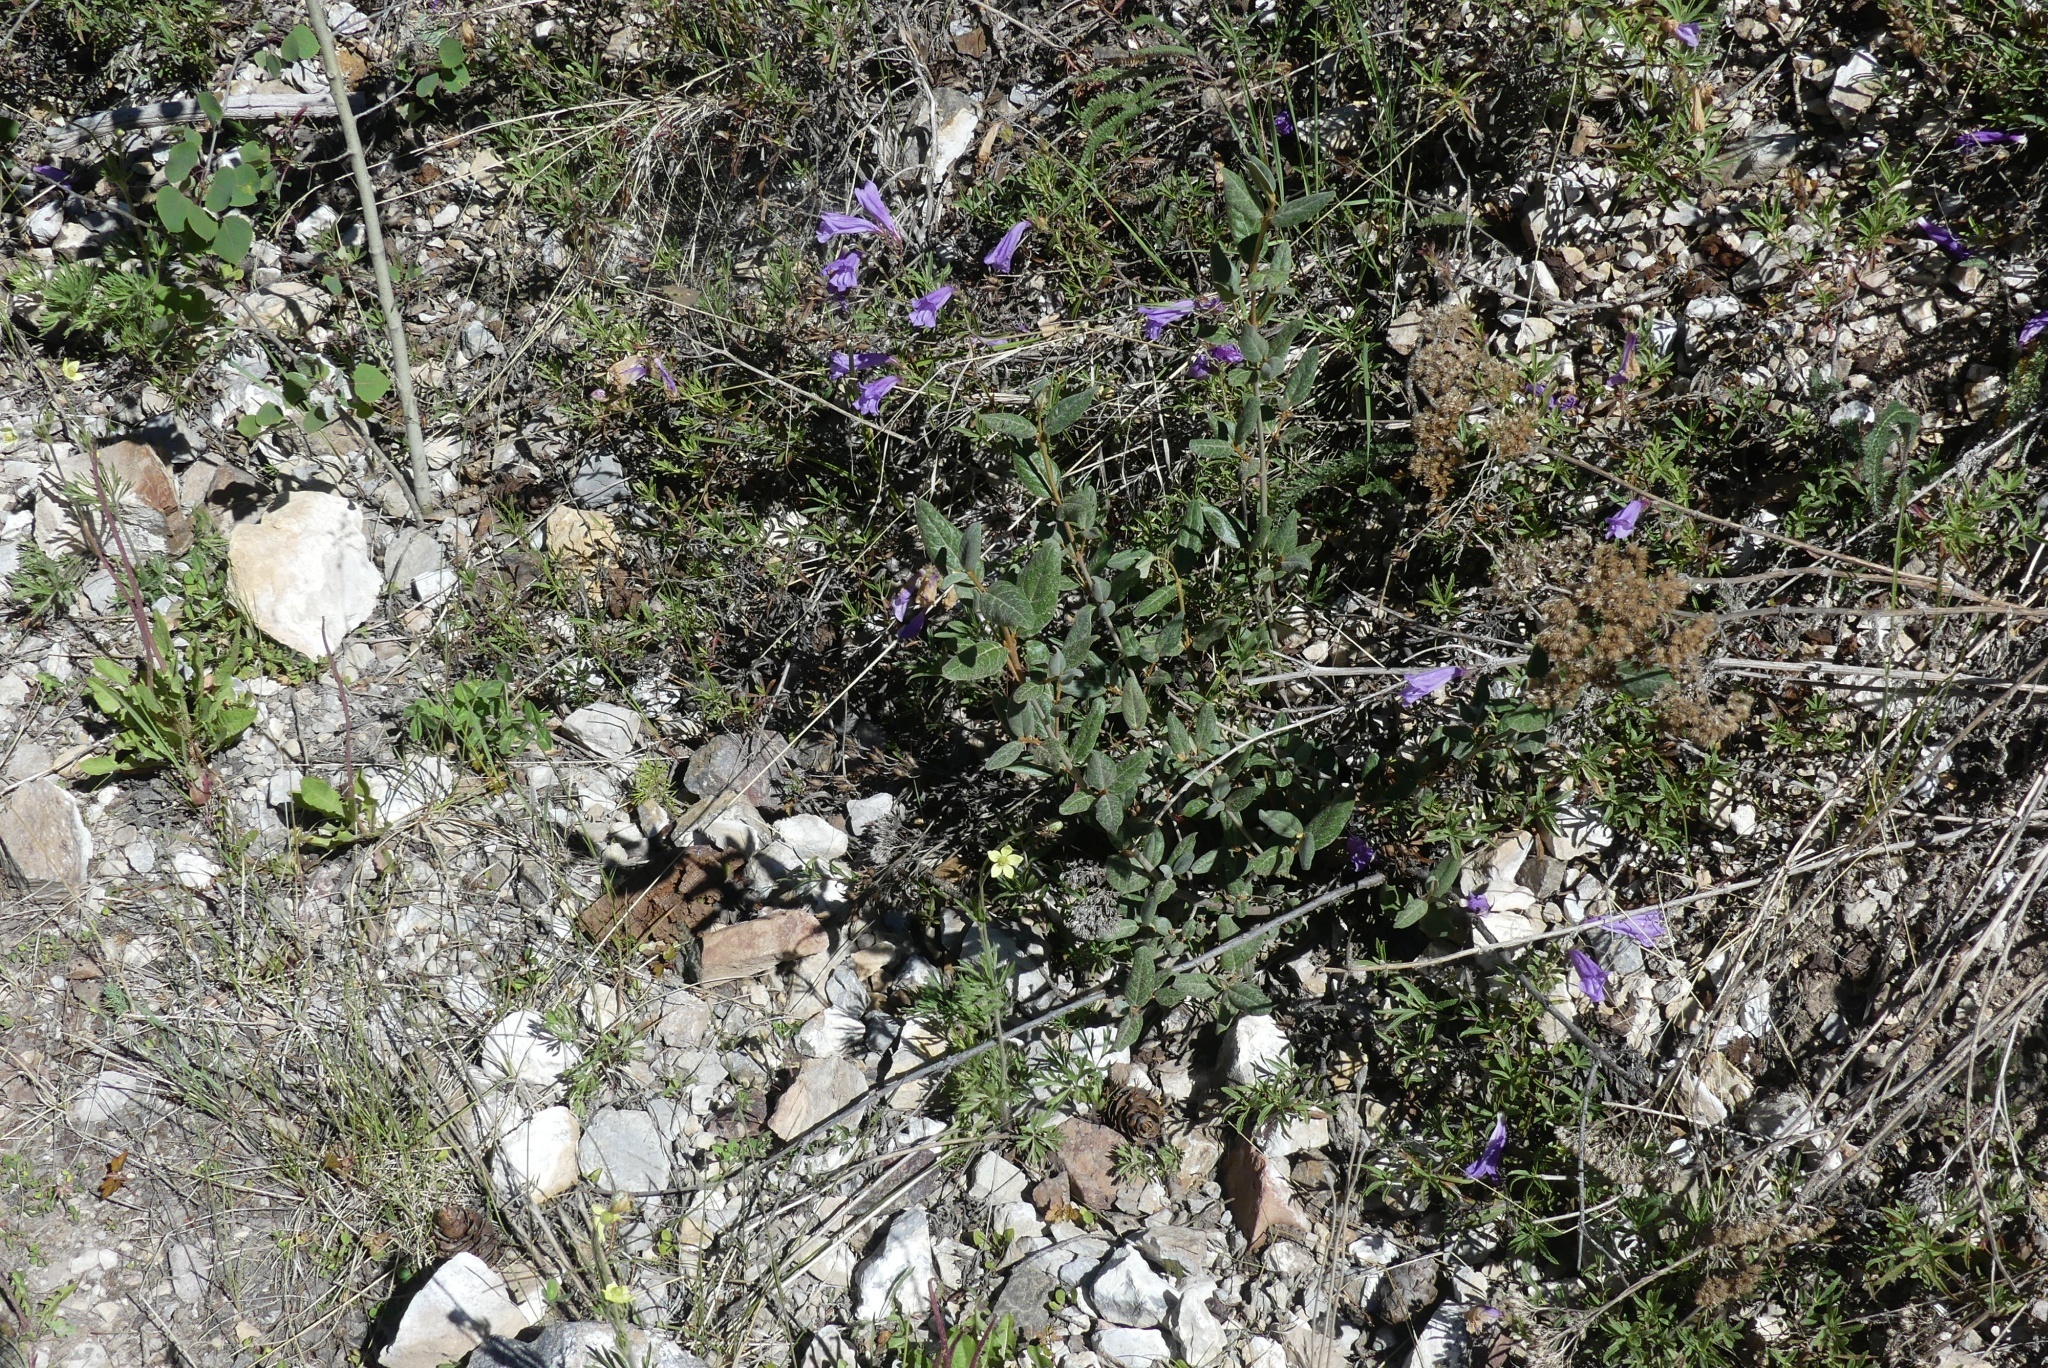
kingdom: Plantae
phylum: Tracheophyta
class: Magnoliopsida
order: Rosales
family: Elaeagnaceae
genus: Shepherdia
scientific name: Shepherdia canadensis
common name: Soapberry
